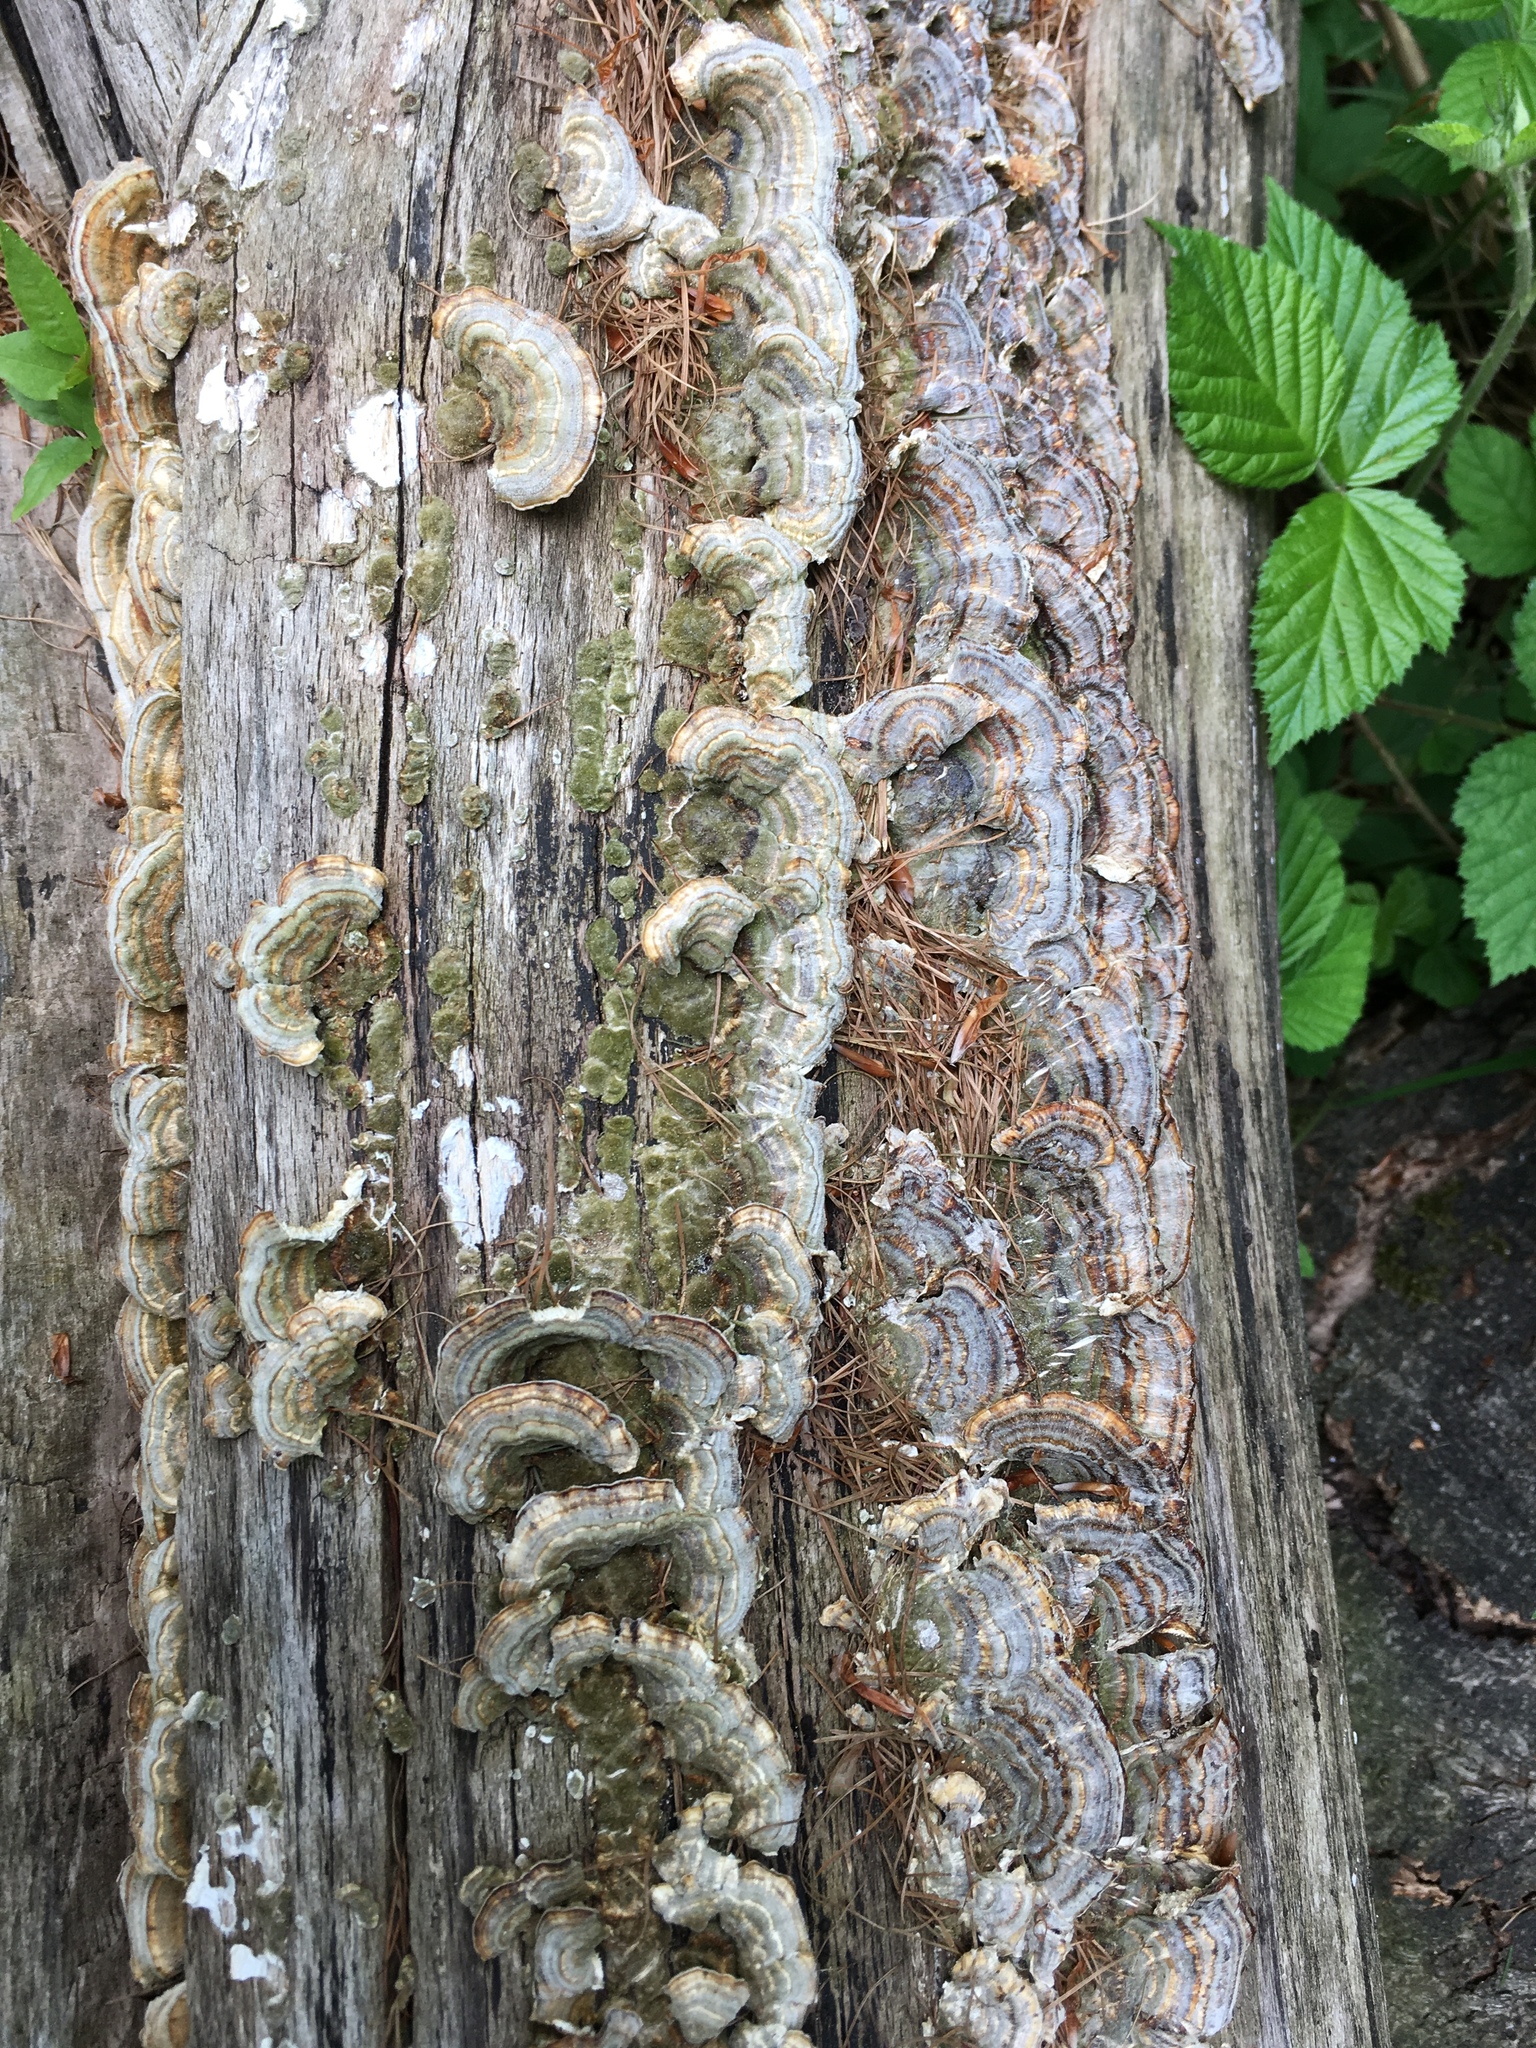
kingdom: Fungi
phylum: Basidiomycota
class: Agaricomycetes
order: Polyporales
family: Polyporaceae
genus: Trametes
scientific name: Trametes versicolor
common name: Turkeytail
